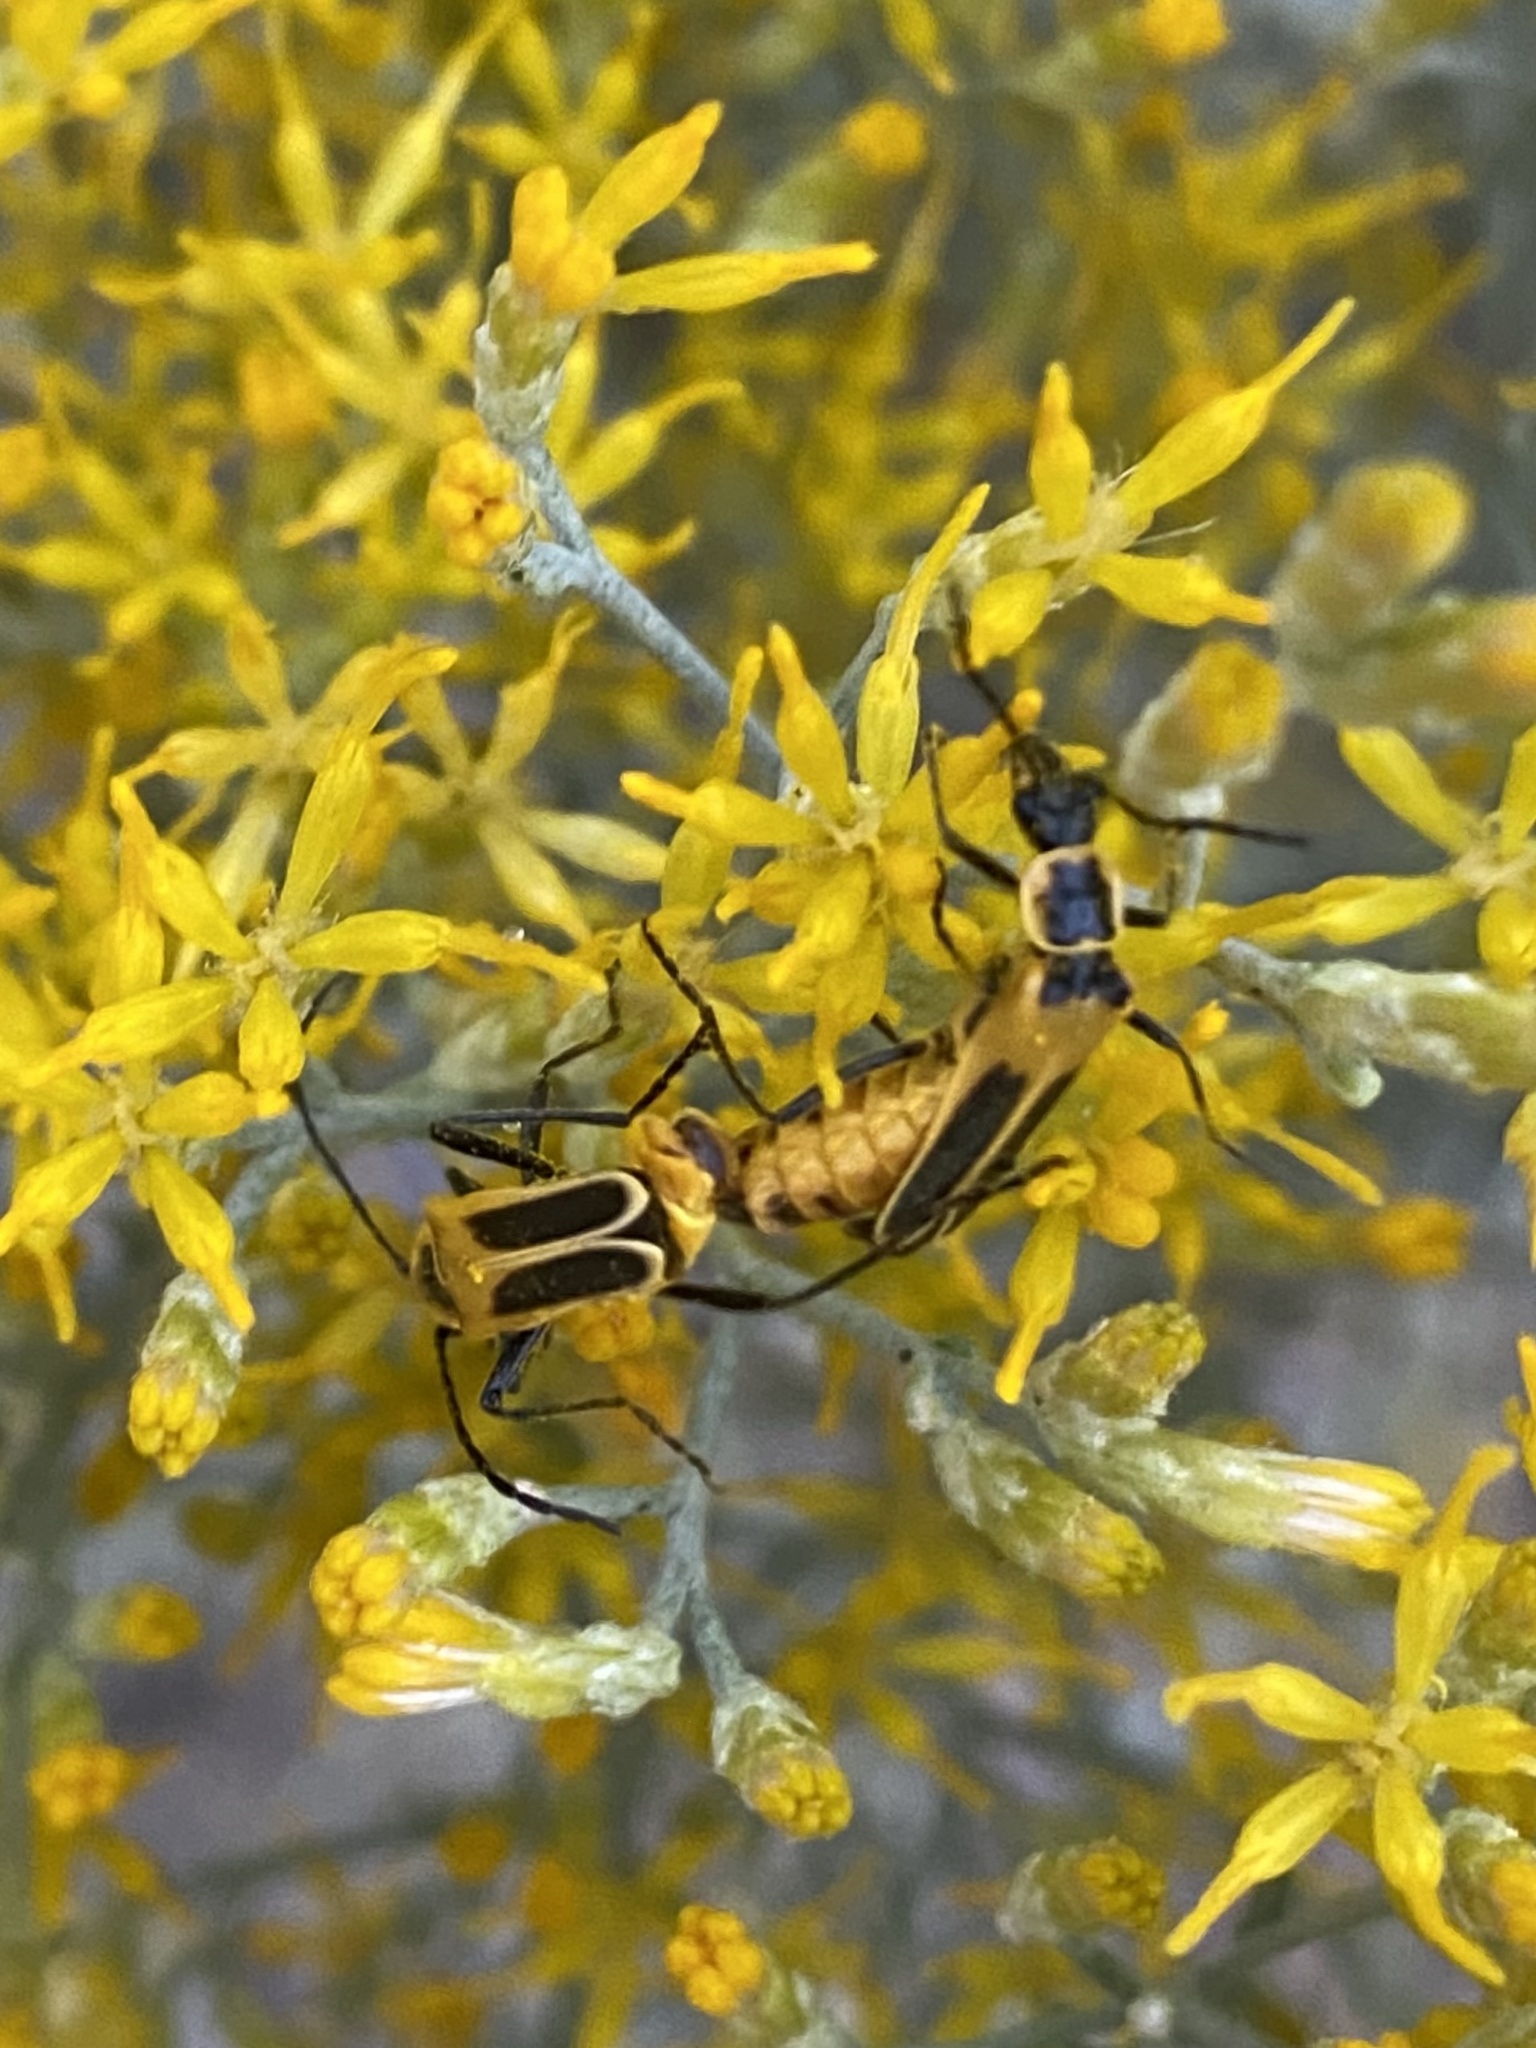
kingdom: Animalia
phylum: Arthropoda
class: Insecta
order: Coleoptera
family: Cantharidae
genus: Chauliognathus
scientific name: Chauliognathus lewisi
